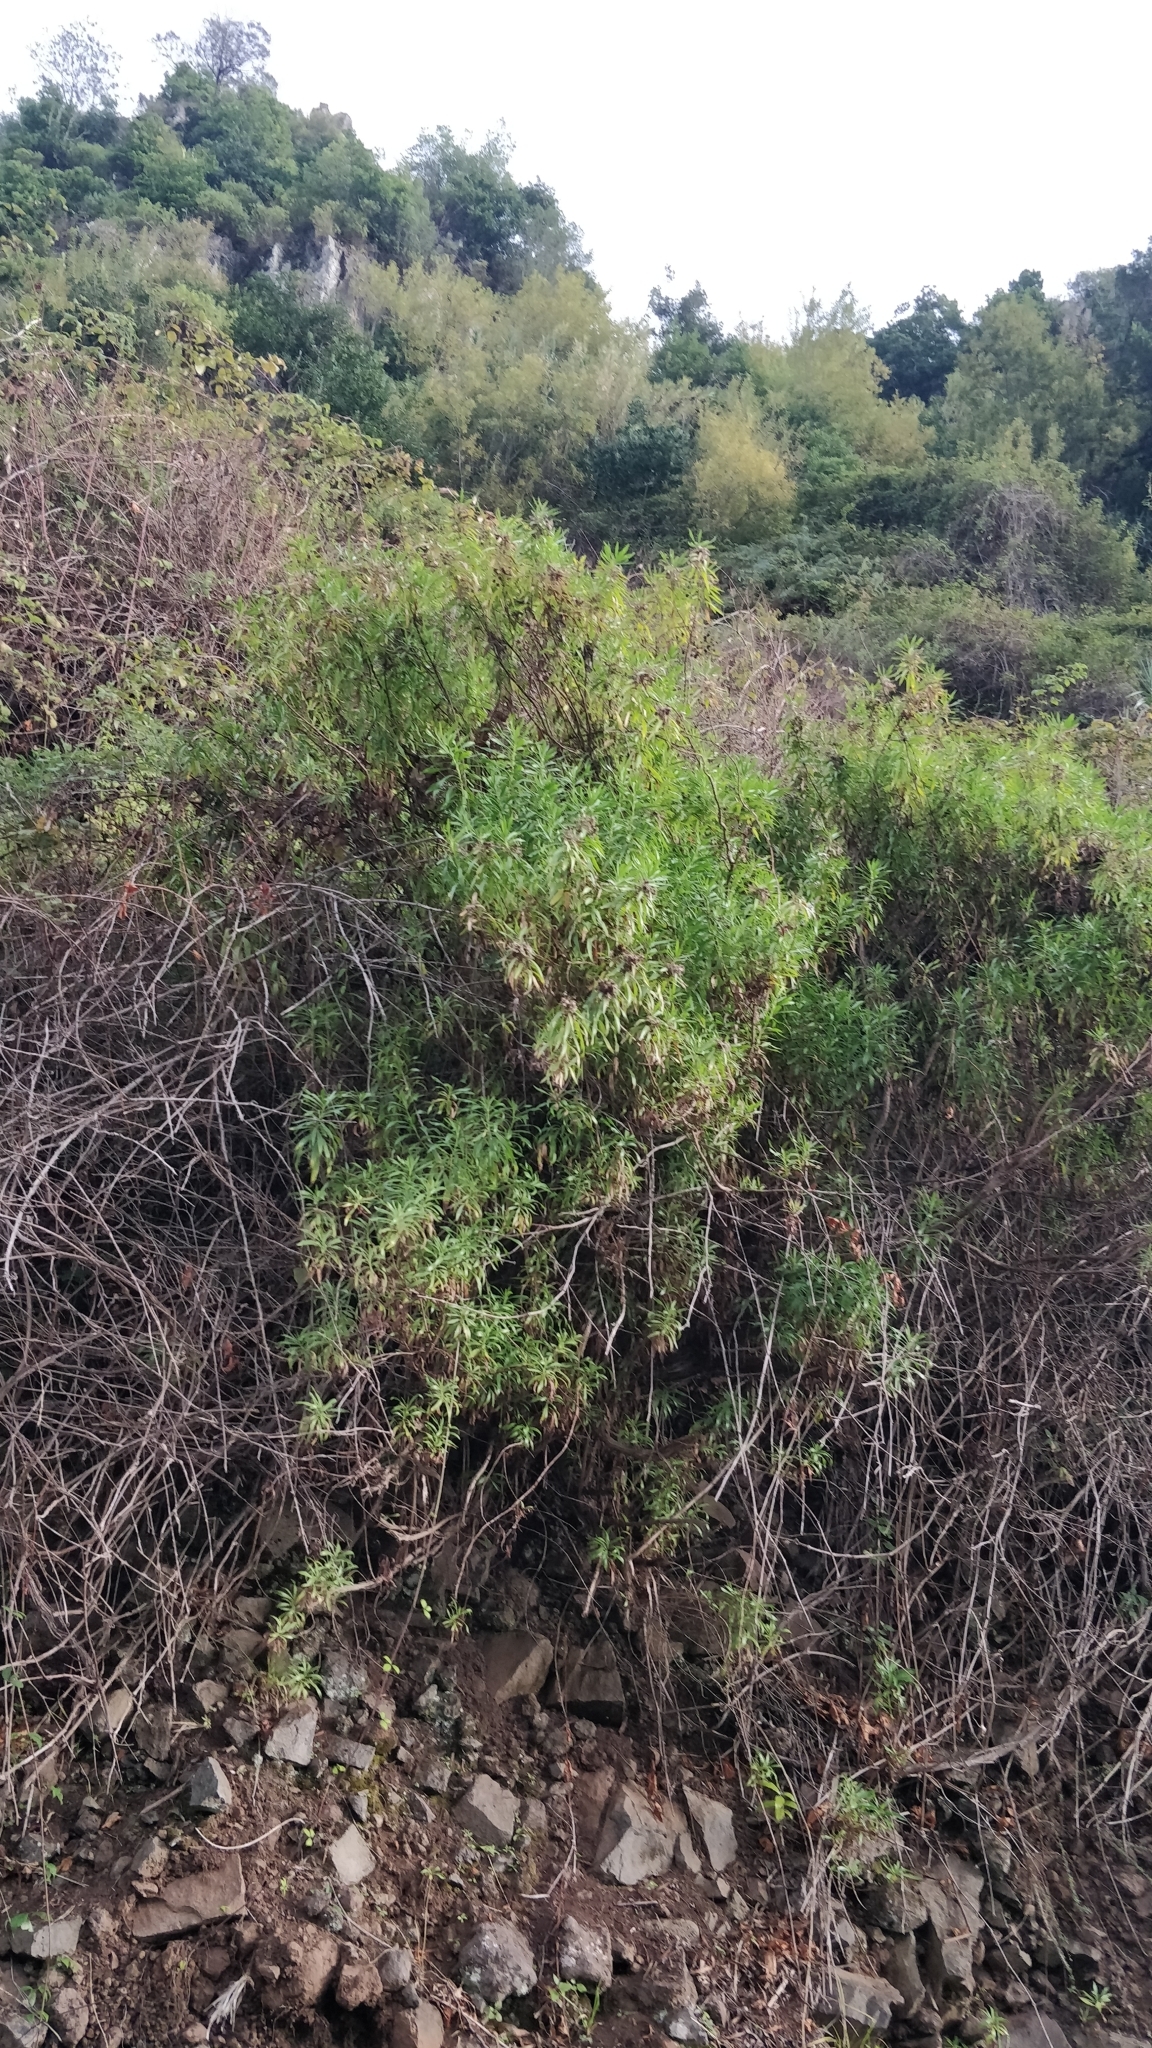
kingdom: Plantae
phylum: Tracheophyta
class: Magnoliopsida
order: Lamiales
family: Plantaginaceae
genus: Globularia
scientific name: Globularia salicina
